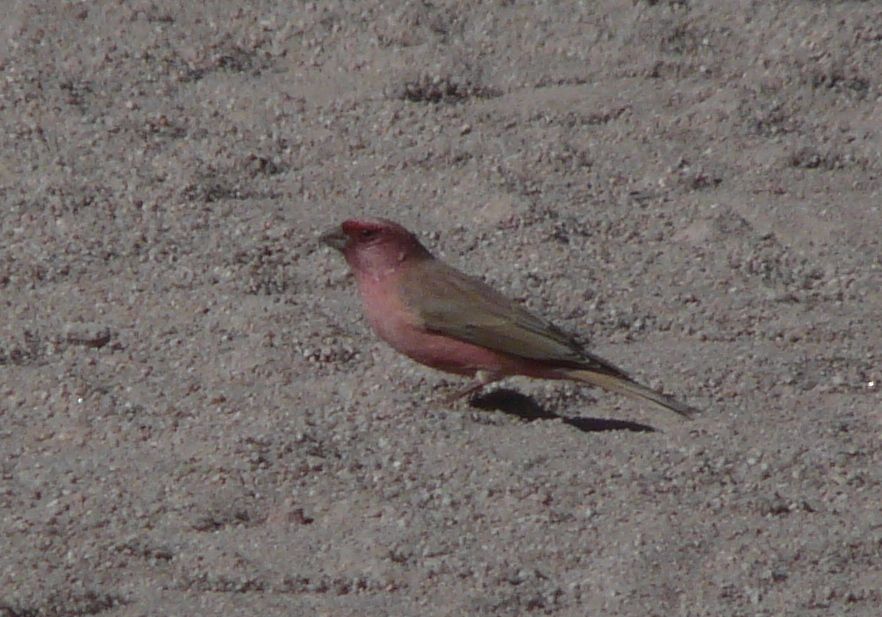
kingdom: Animalia
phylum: Chordata
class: Aves
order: Passeriformes
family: Fringillidae
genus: Carpodacus
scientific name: Carpodacus synoicus
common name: Sinai rosefinch
